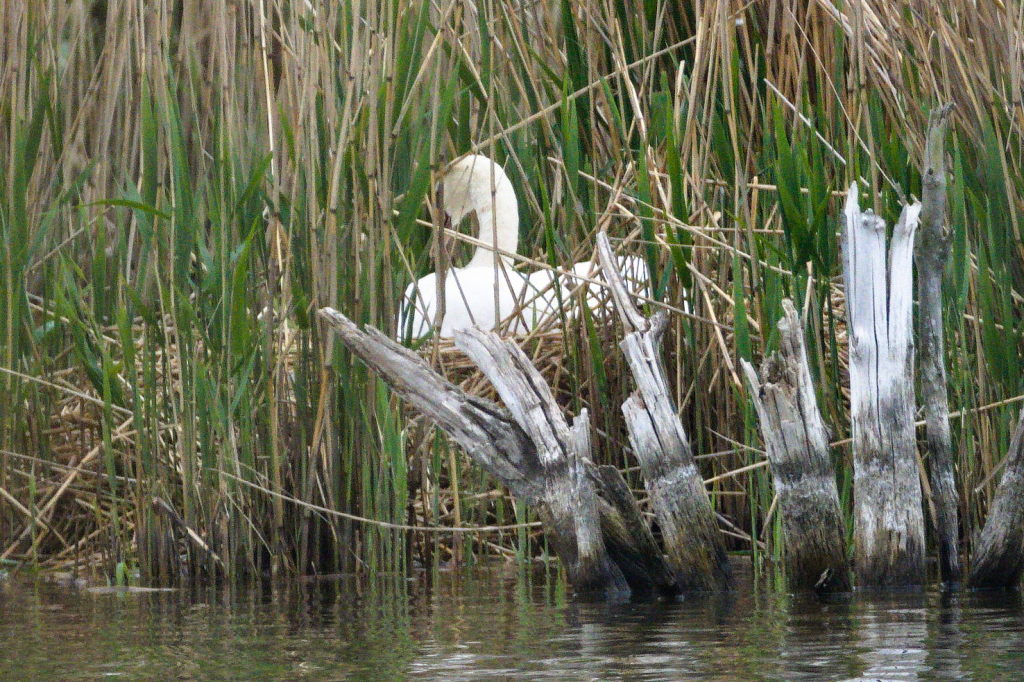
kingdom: Animalia
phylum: Chordata
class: Aves
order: Anseriformes
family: Anatidae
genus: Cygnus
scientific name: Cygnus olor
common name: Mute swan
